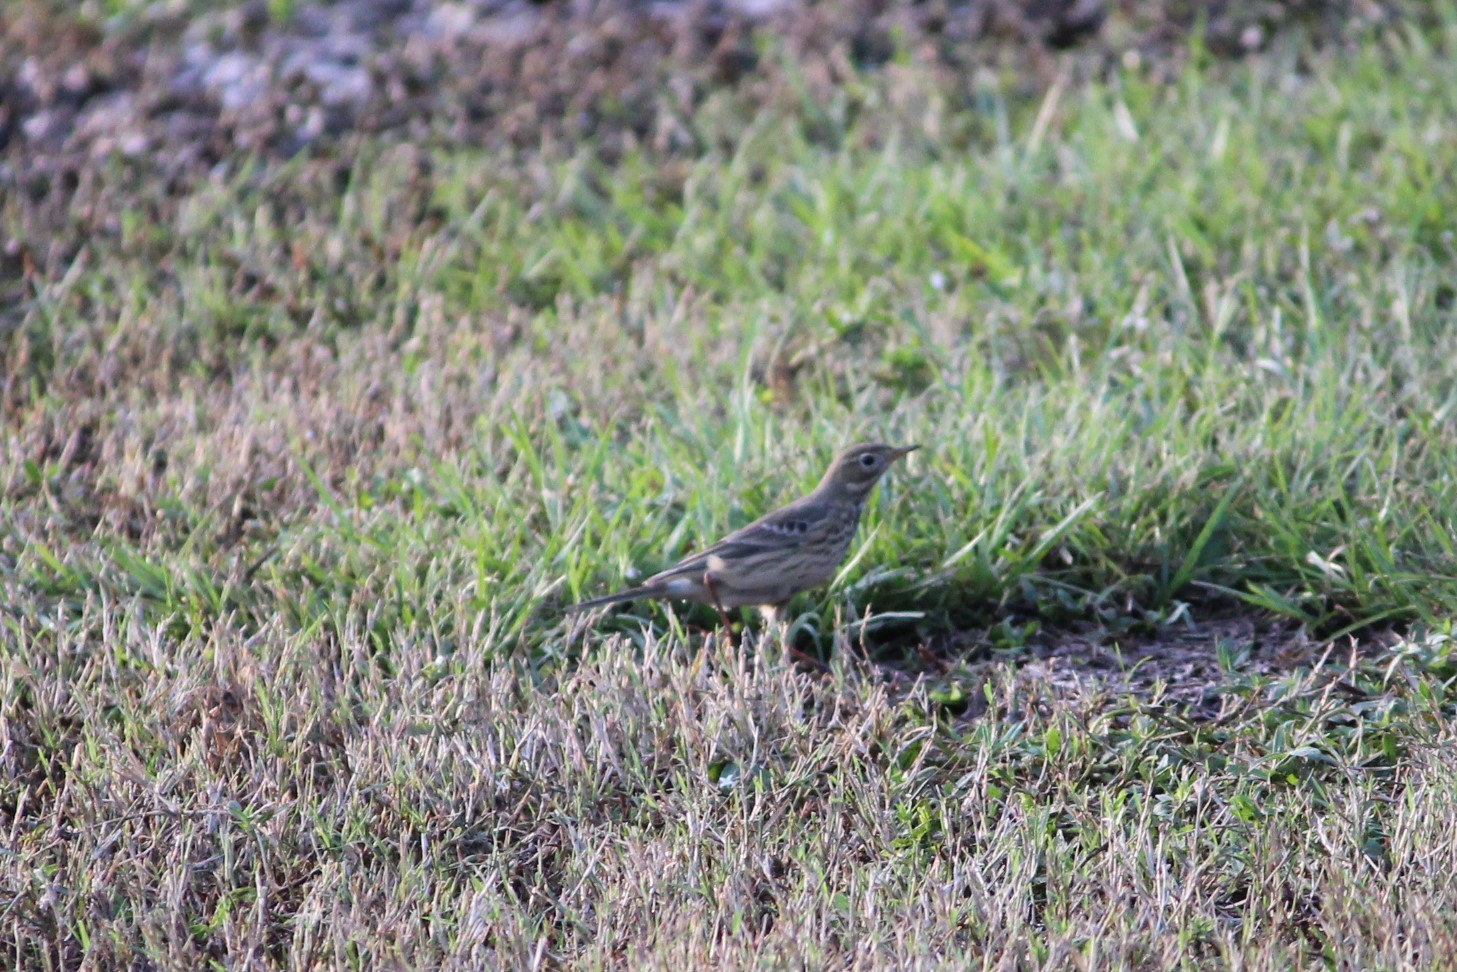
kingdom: Animalia
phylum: Chordata
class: Aves
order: Passeriformes
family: Motacillidae
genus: Anthus
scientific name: Anthus rubescens
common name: Buff-bellied pipit
